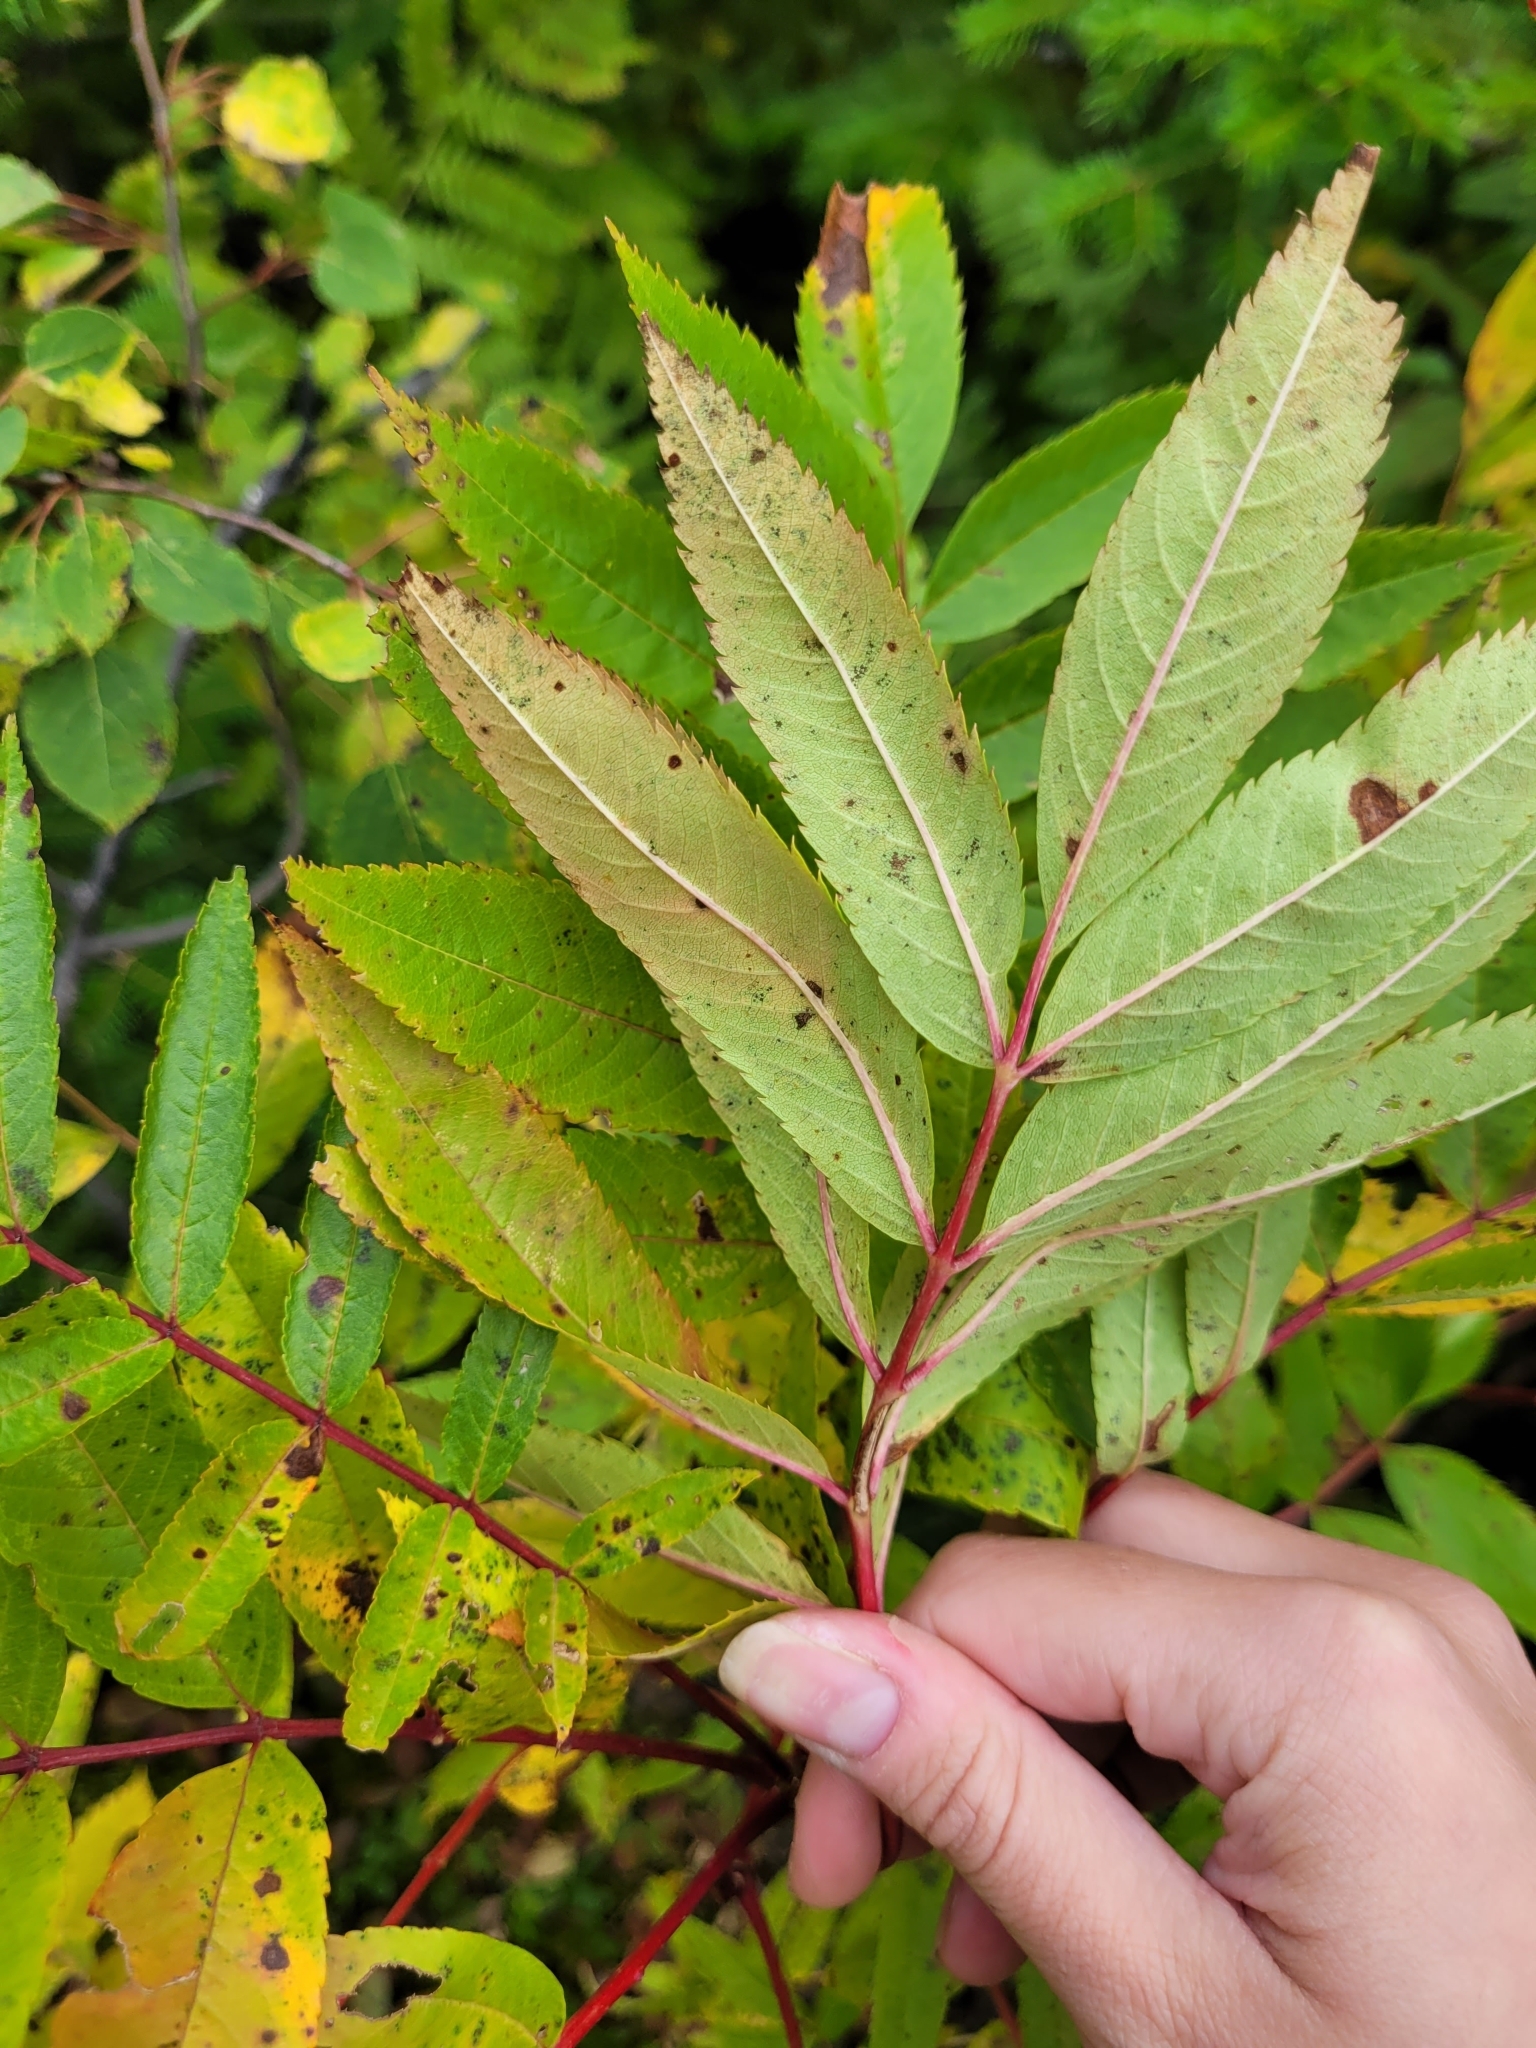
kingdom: Plantae
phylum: Tracheophyta
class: Magnoliopsida
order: Rosales
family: Rosaceae
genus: Sorbus
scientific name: Sorbus americana
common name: American mountain-ash
